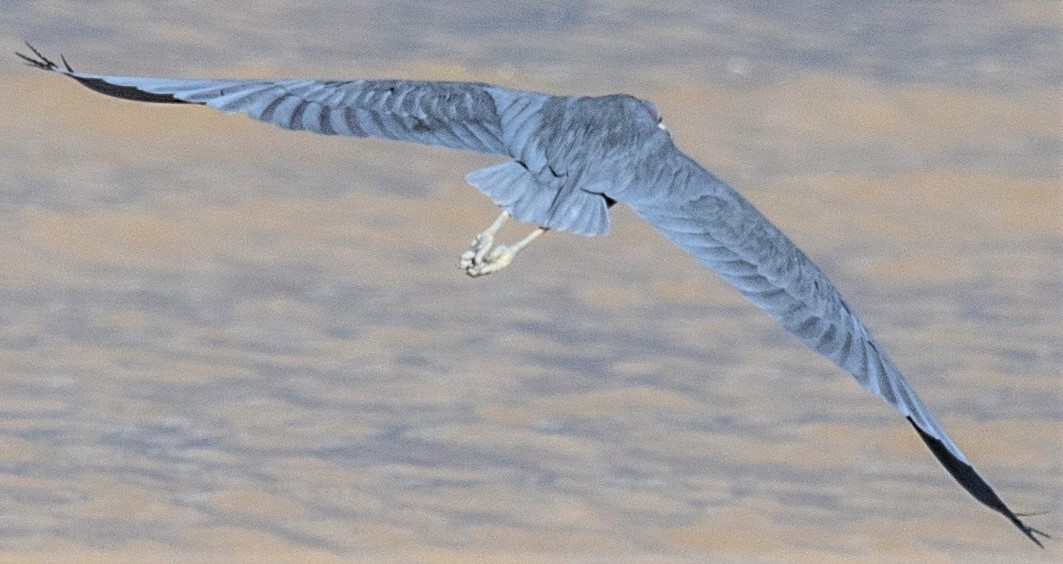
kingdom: Animalia
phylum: Chordata
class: Aves
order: Pelecaniformes
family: Ardeidae
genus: Egretta
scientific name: Egretta caerulea
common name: Little blue heron
